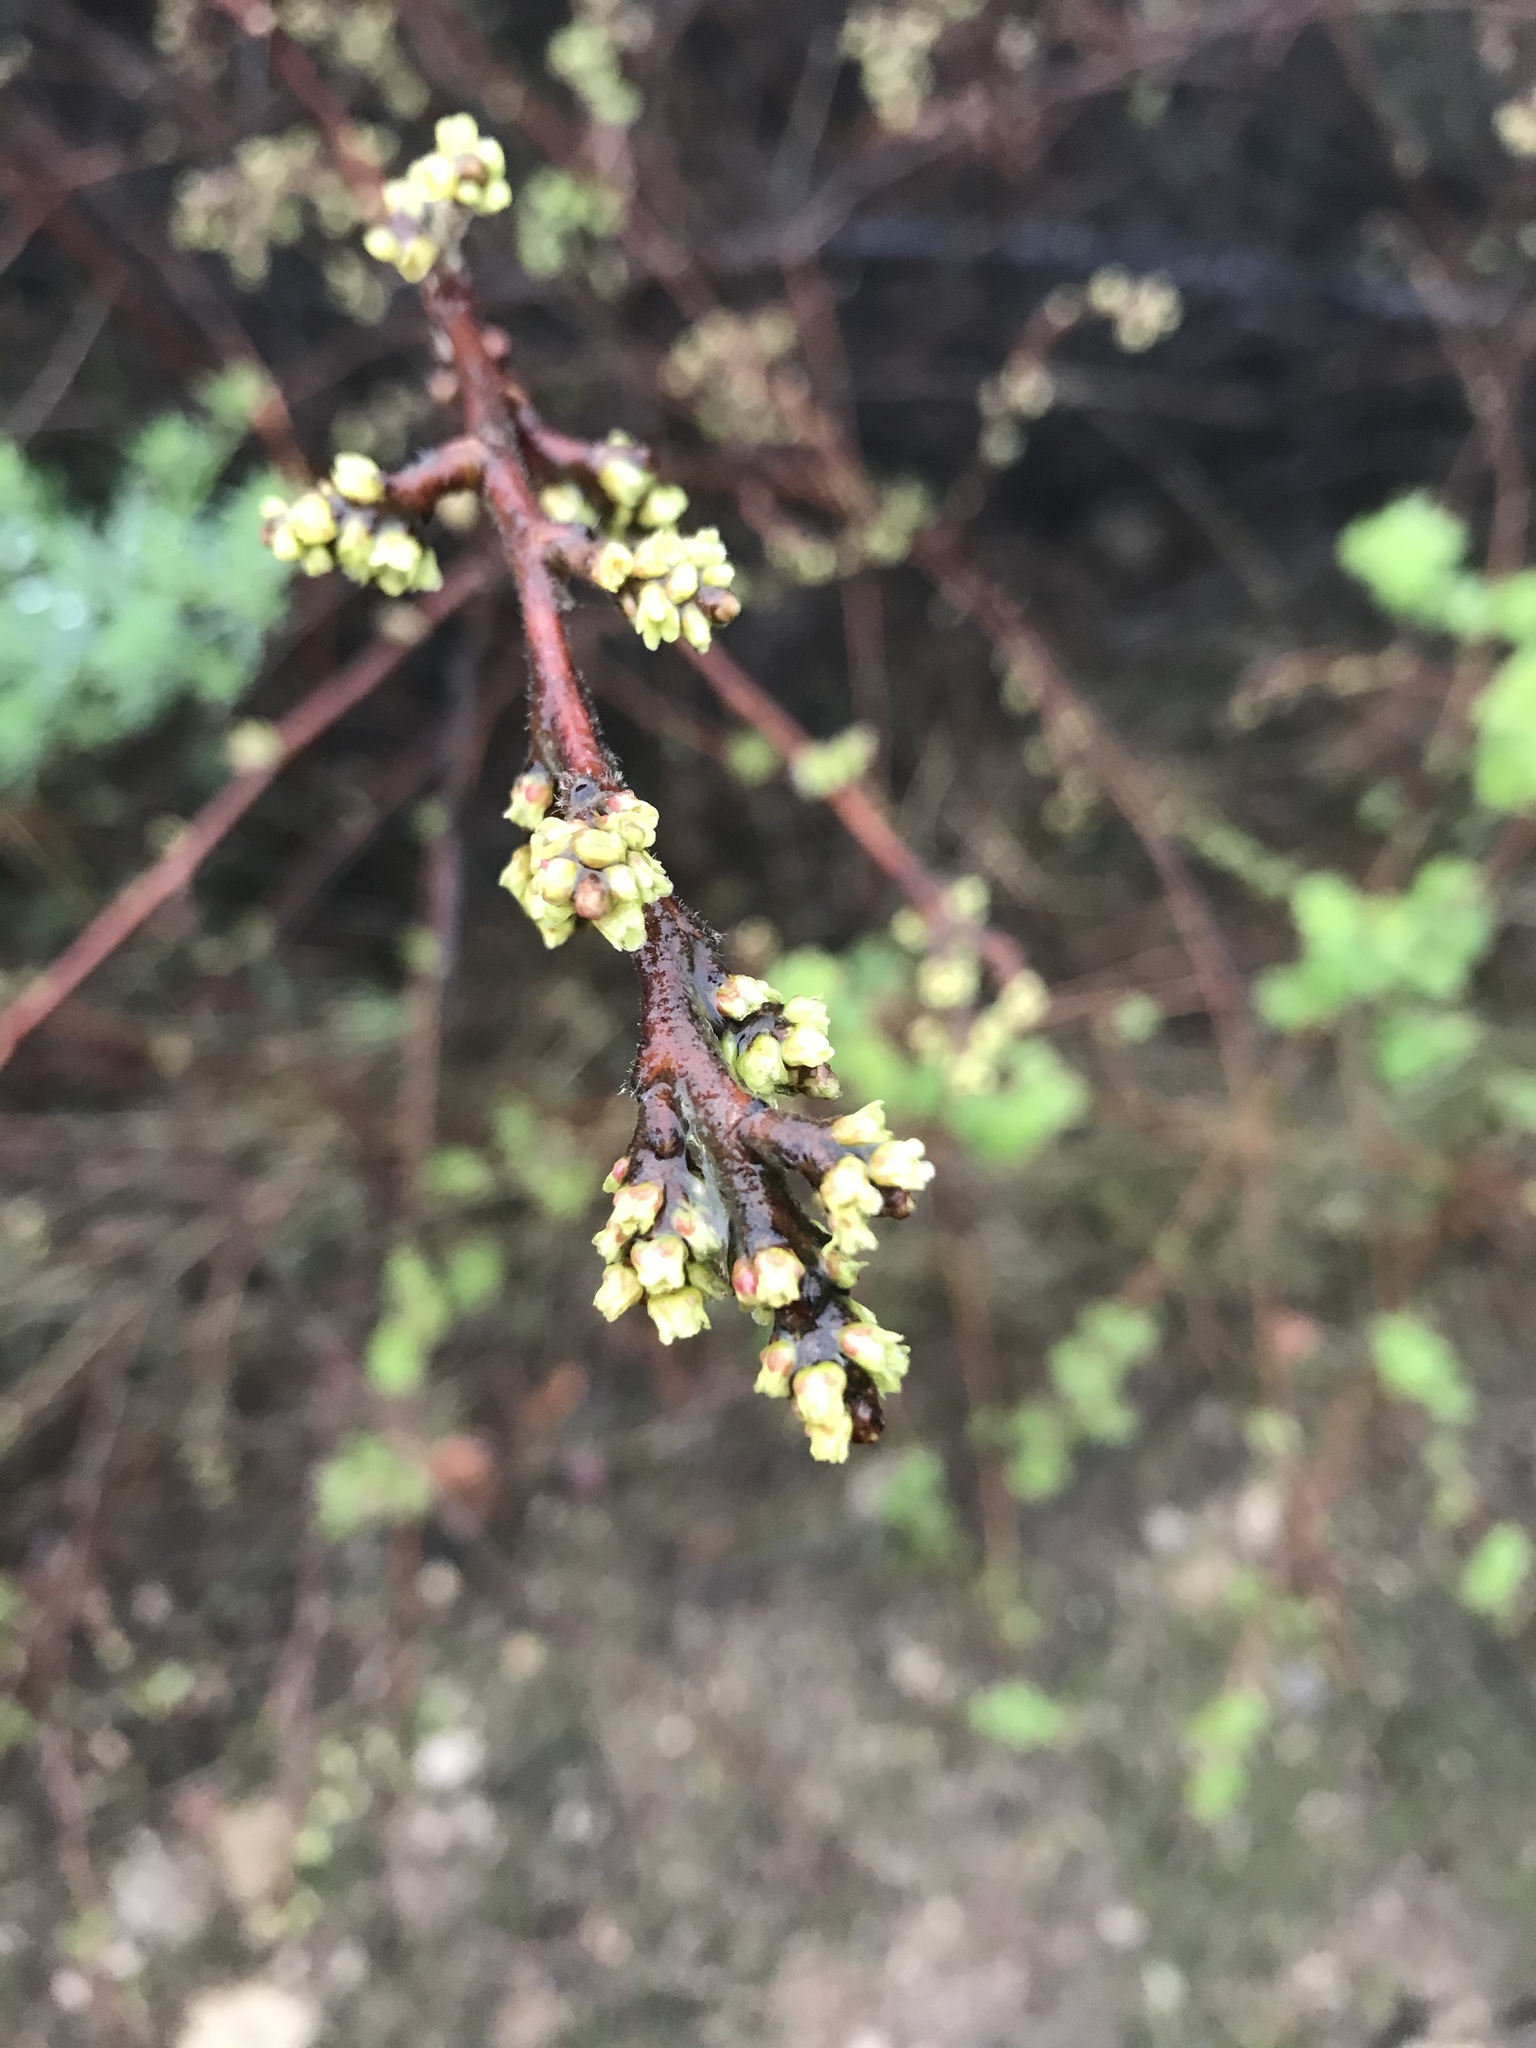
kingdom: Plantae
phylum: Tracheophyta
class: Magnoliopsida
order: Sapindales
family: Anacardiaceae
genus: Rhus
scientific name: Rhus aromatica
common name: Aromatic sumac
